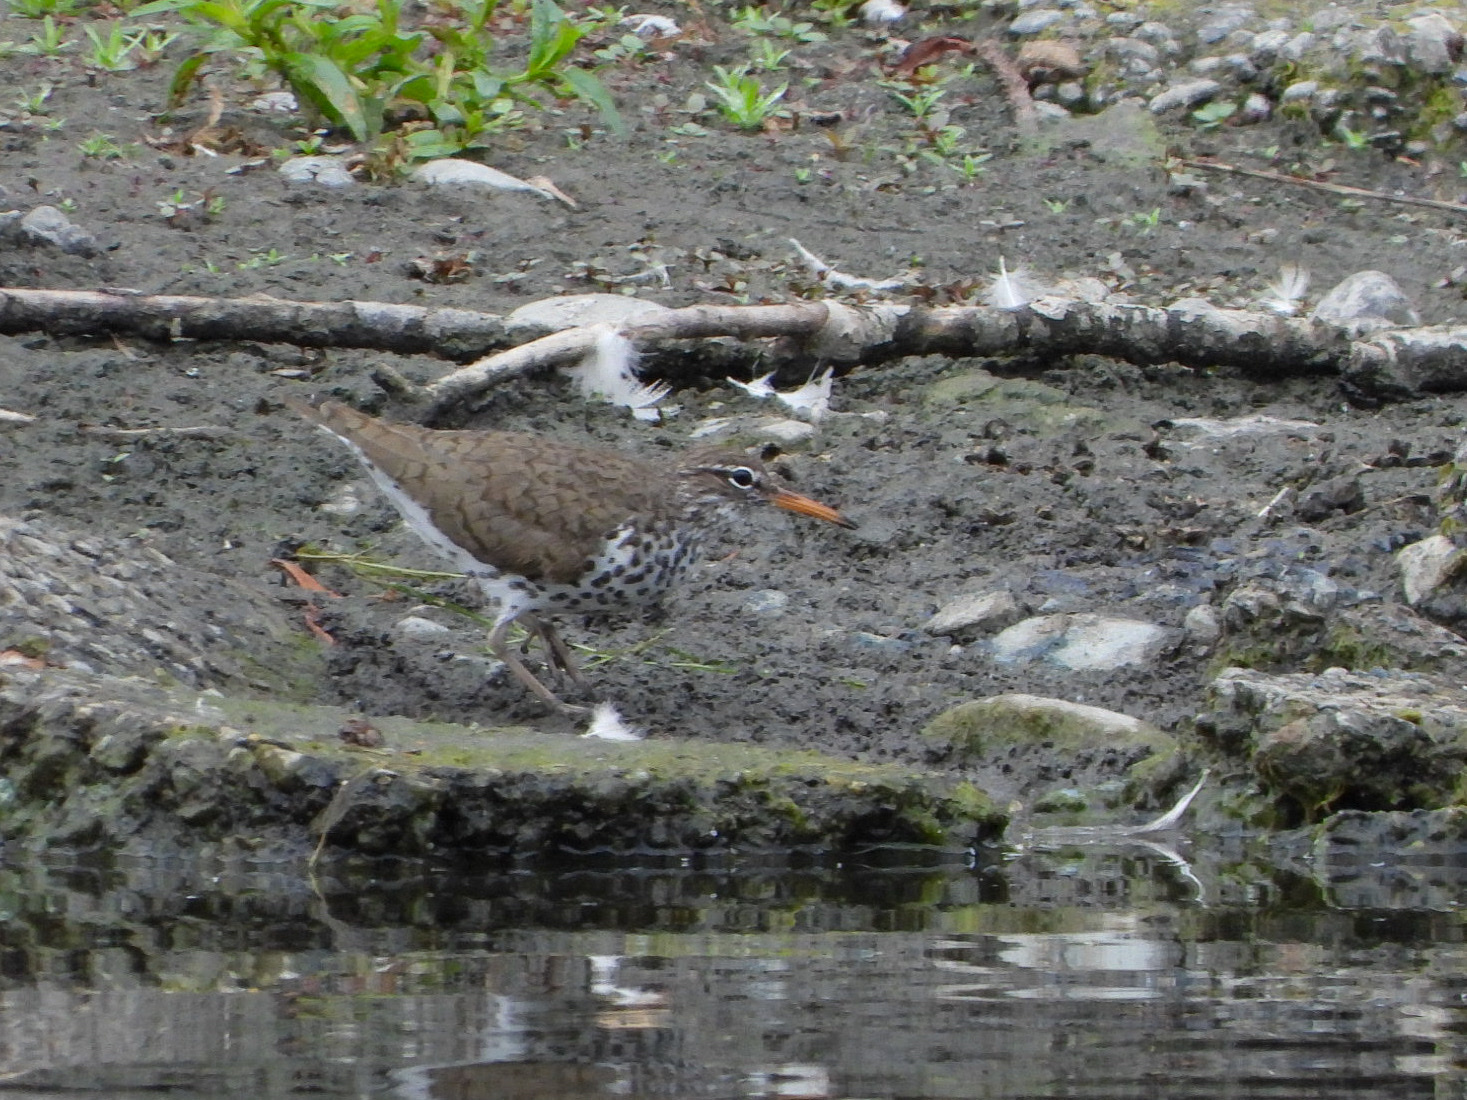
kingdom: Animalia
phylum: Chordata
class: Aves
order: Charadriiformes
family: Scolopacidae
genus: Actitis
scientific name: Actitis macularius
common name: Spotted sandpiper
